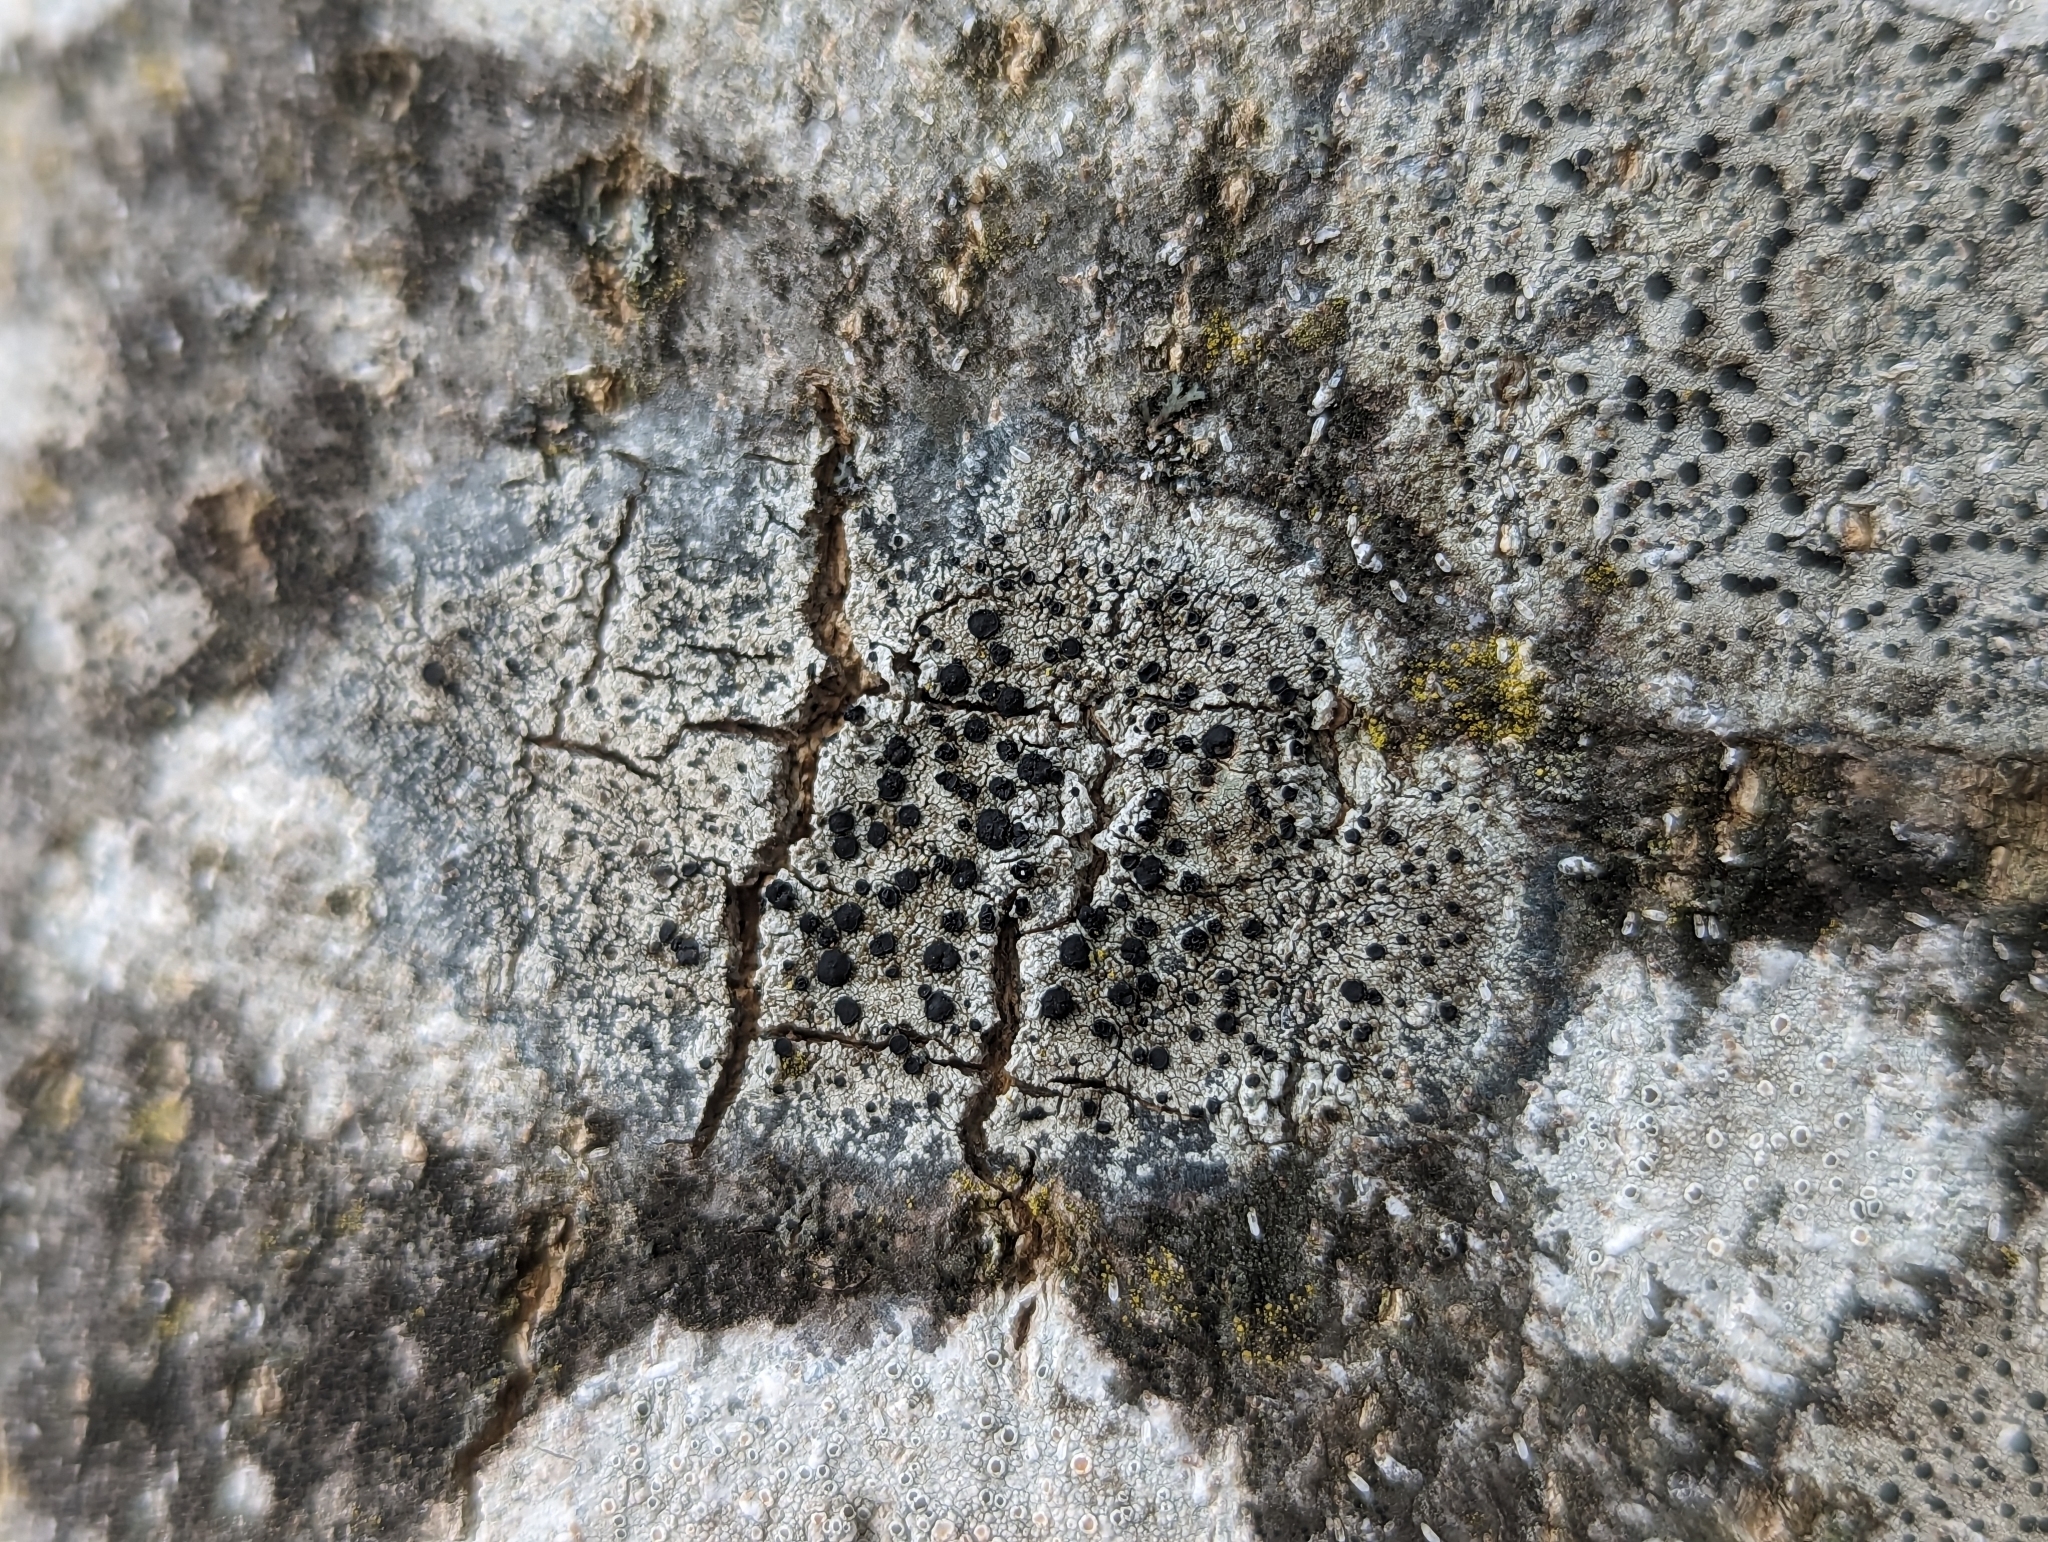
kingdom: Fungi
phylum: Ascomycota
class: Lecanoromycetes
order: Lecanorales
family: Lecanoraceae
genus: Lecidella
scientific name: Lecidella elaeochroma
